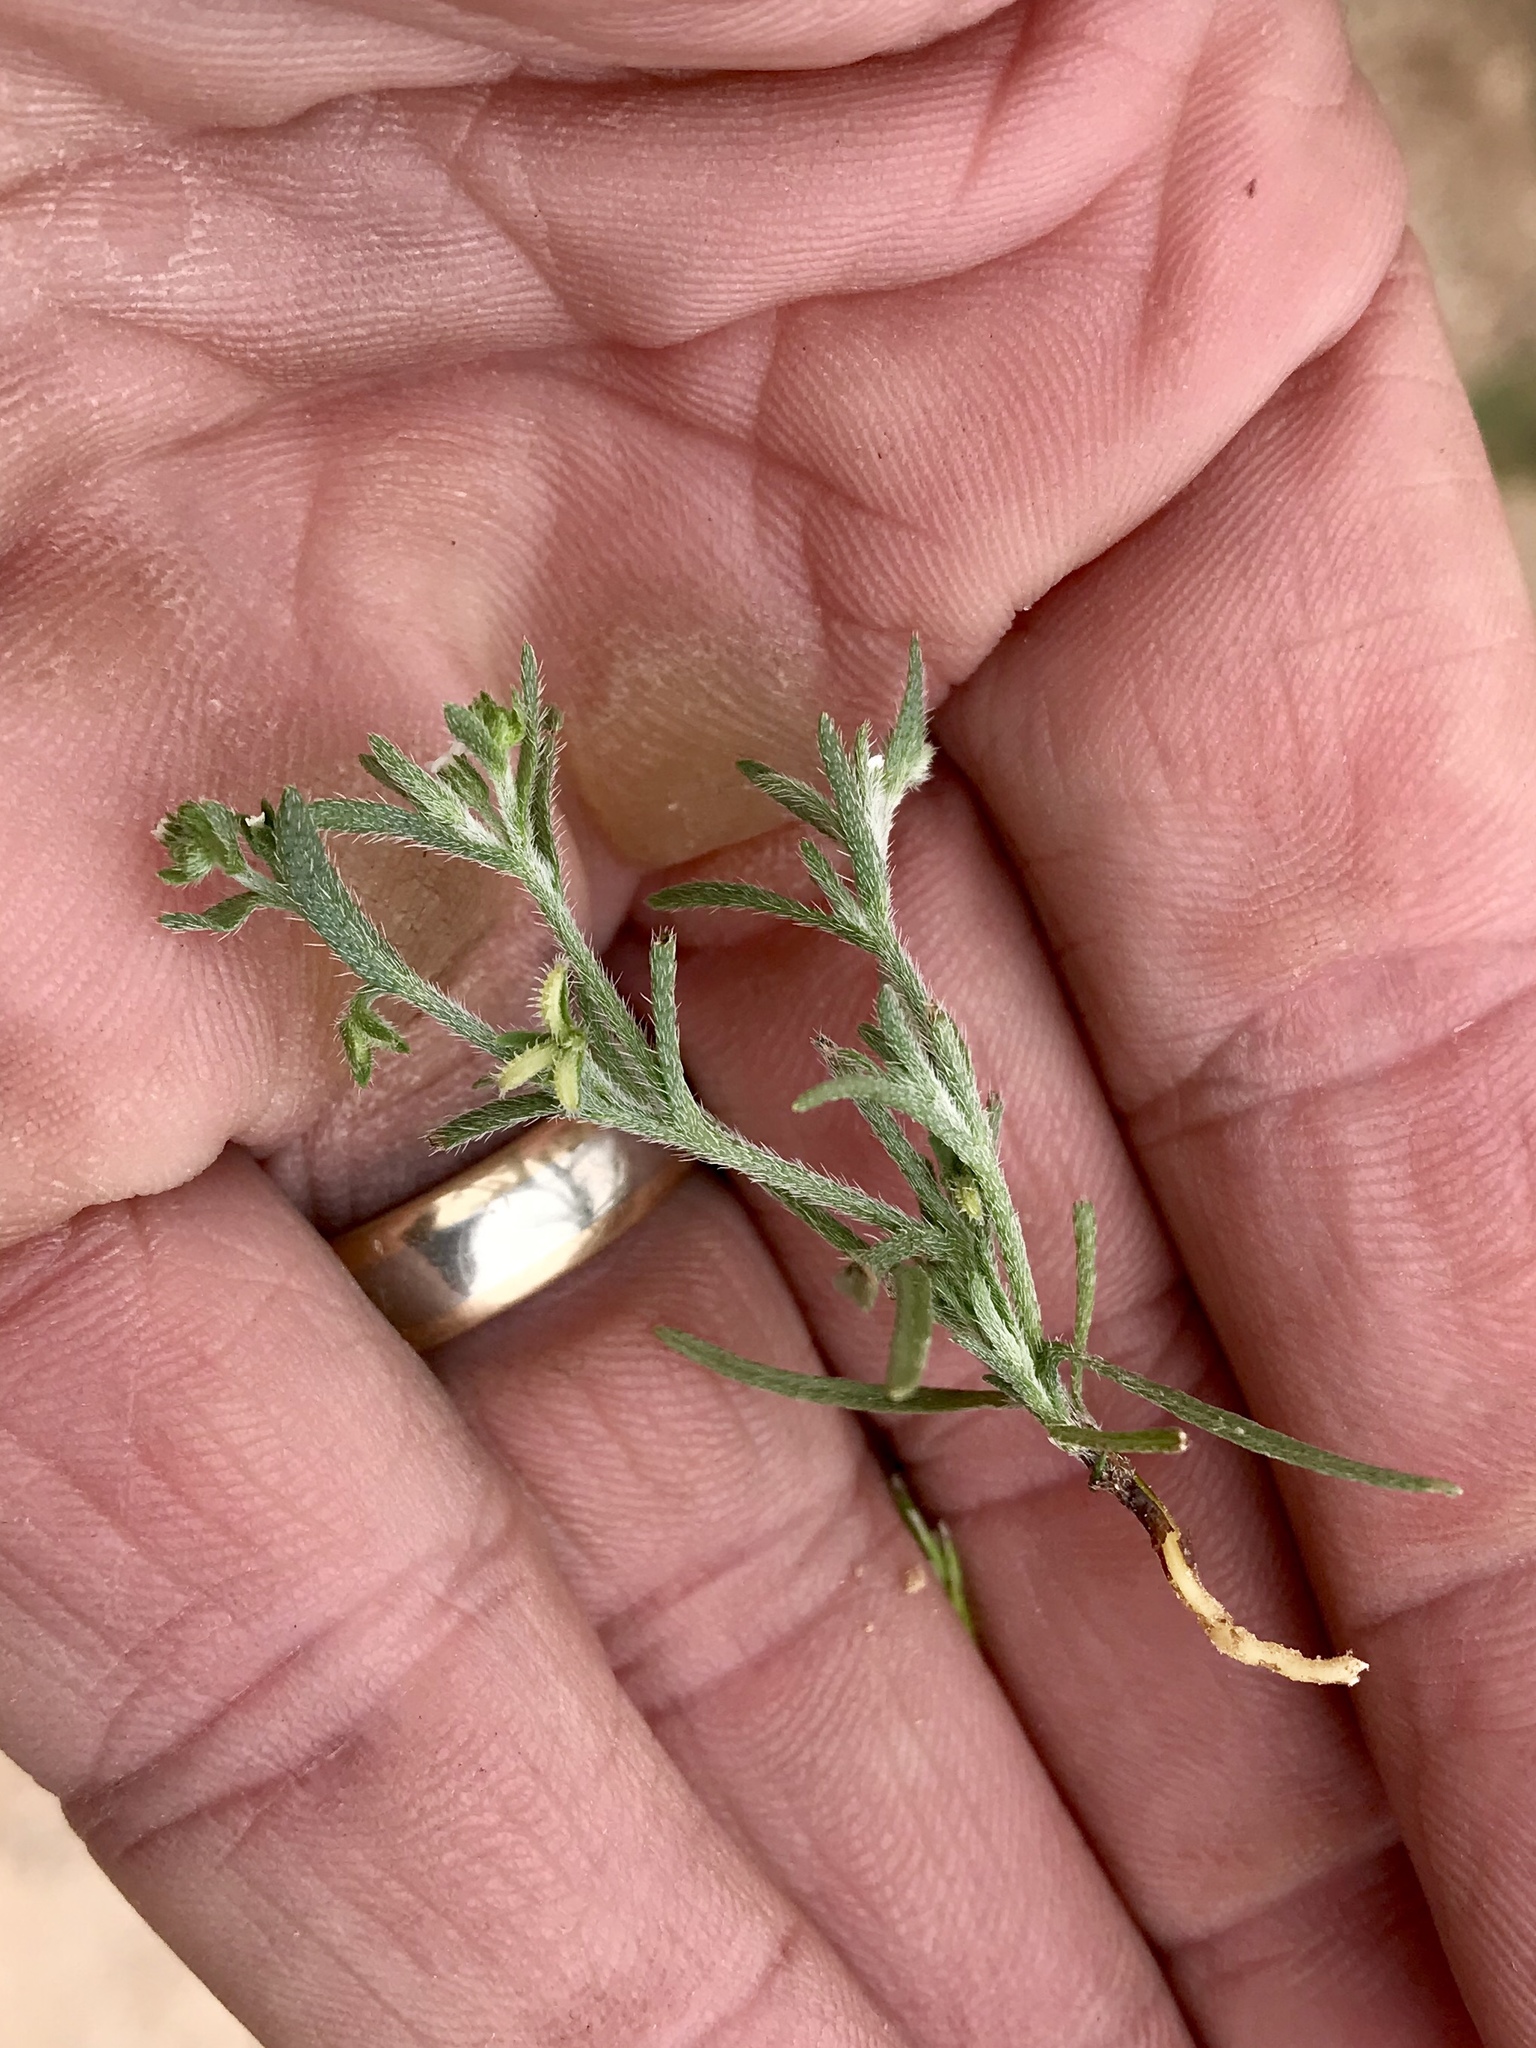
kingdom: Plantae
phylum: Tracheophyta
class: Magnoliopsida
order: Boraginales
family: Boraginaceae
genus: Pectocarya
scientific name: Pectocarya recurvata
